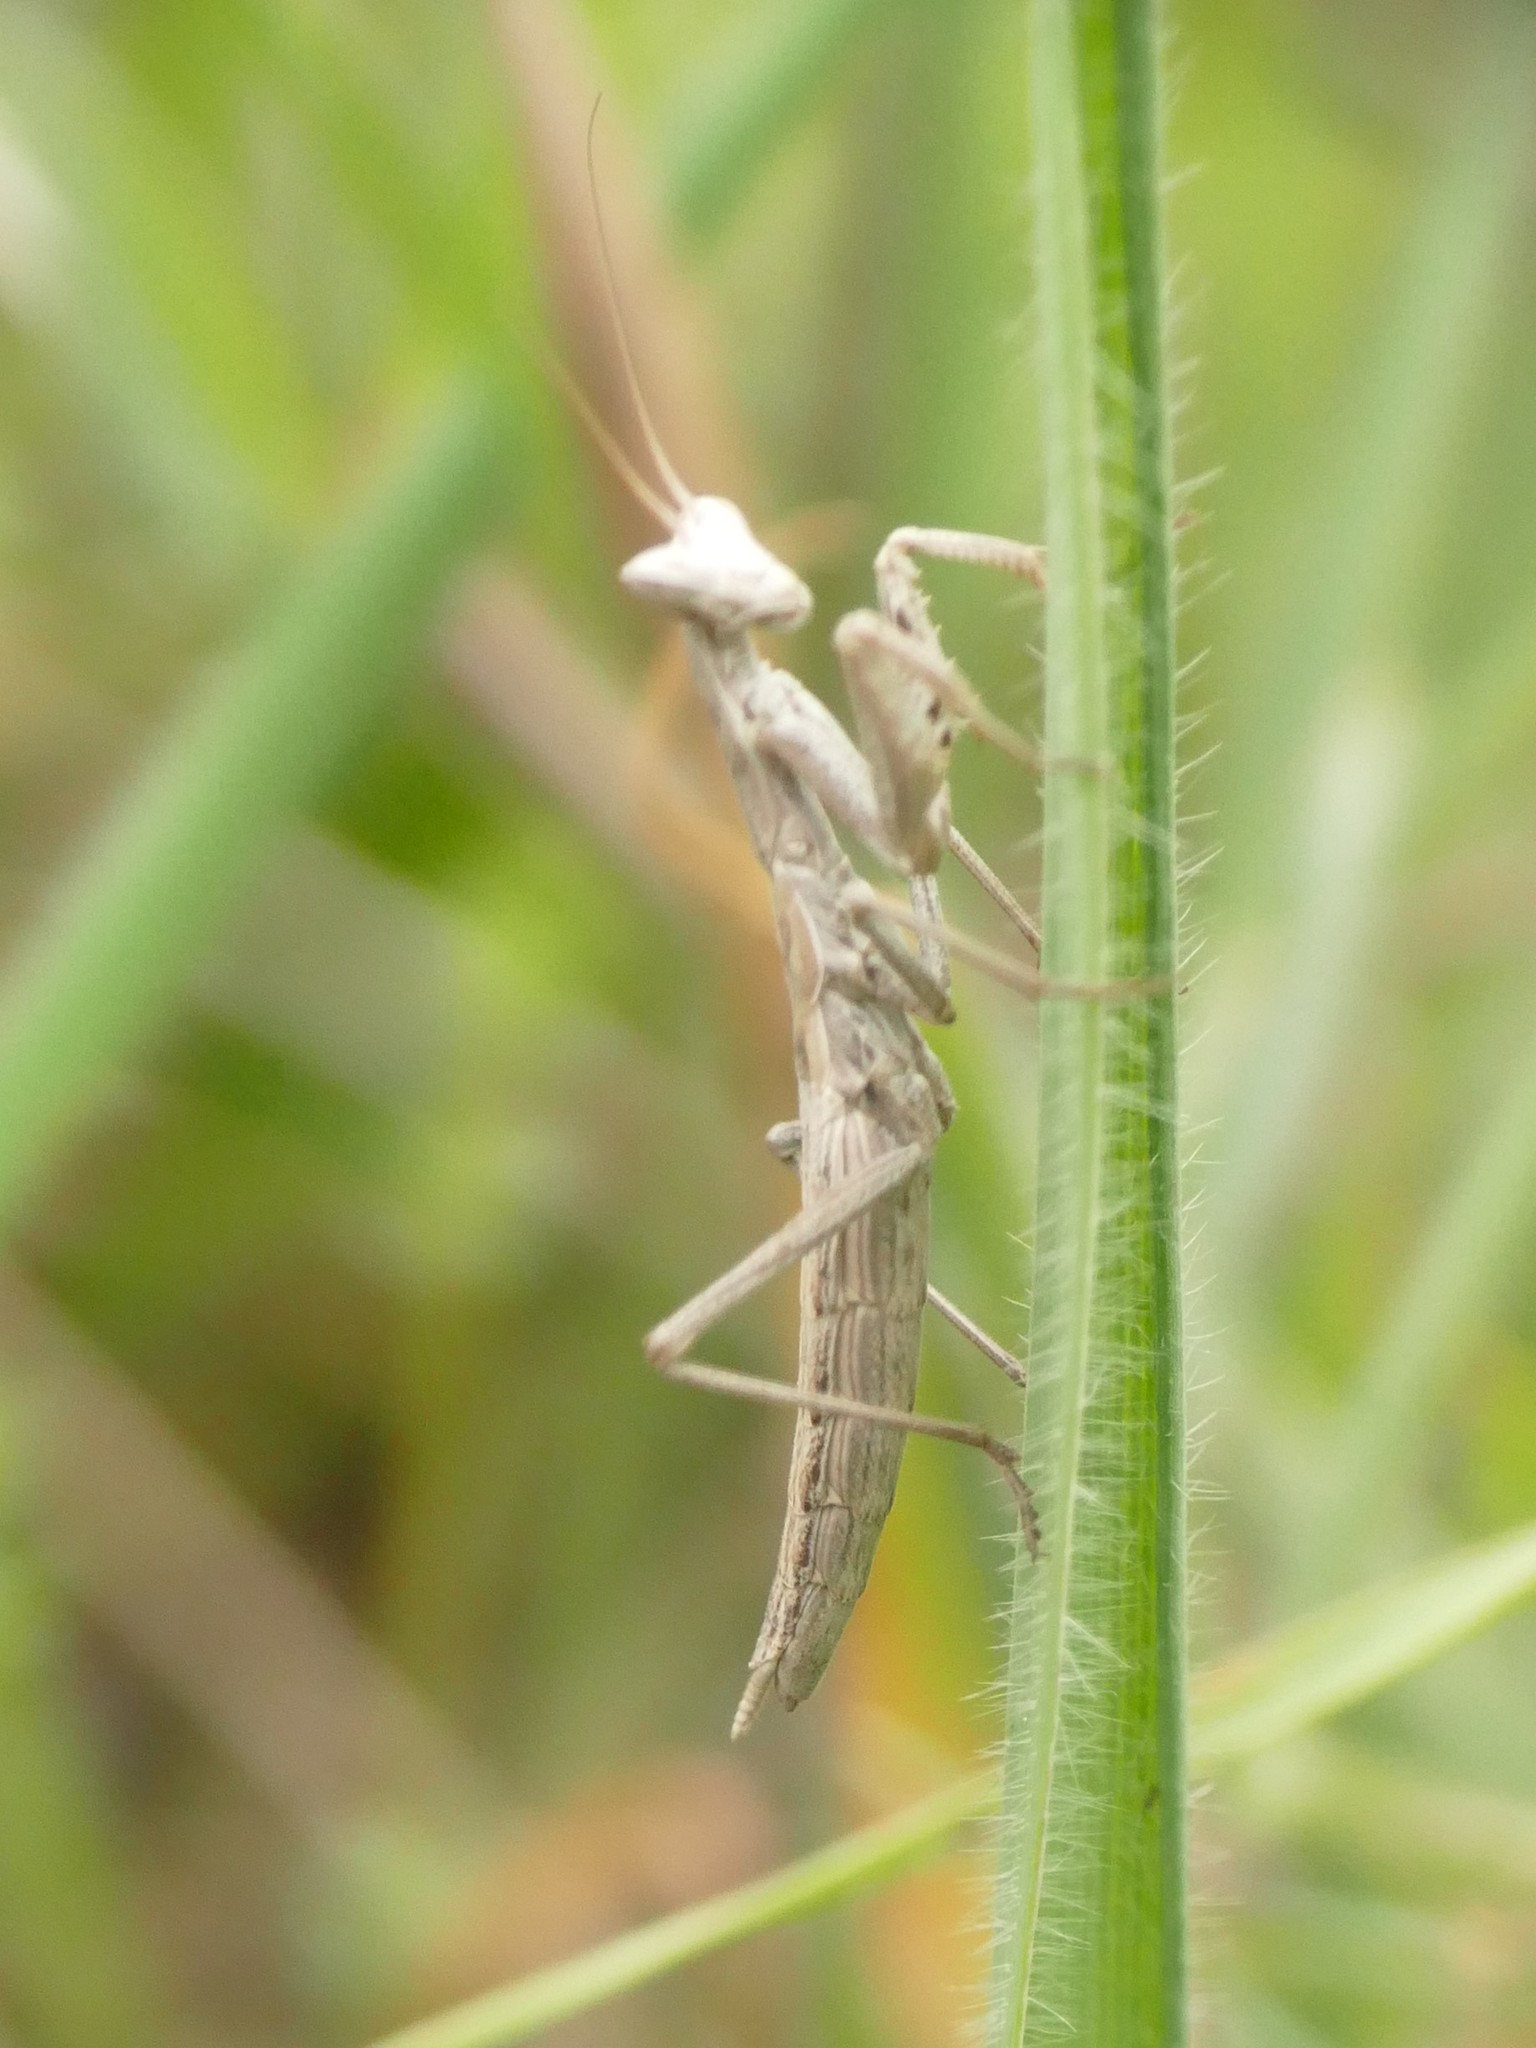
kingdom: Animalia
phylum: Arthropoda
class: Insecta
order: Mantodea
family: Amelidae
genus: Ameles
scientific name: Ameles picteti
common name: Pictet's dwarf mantis
